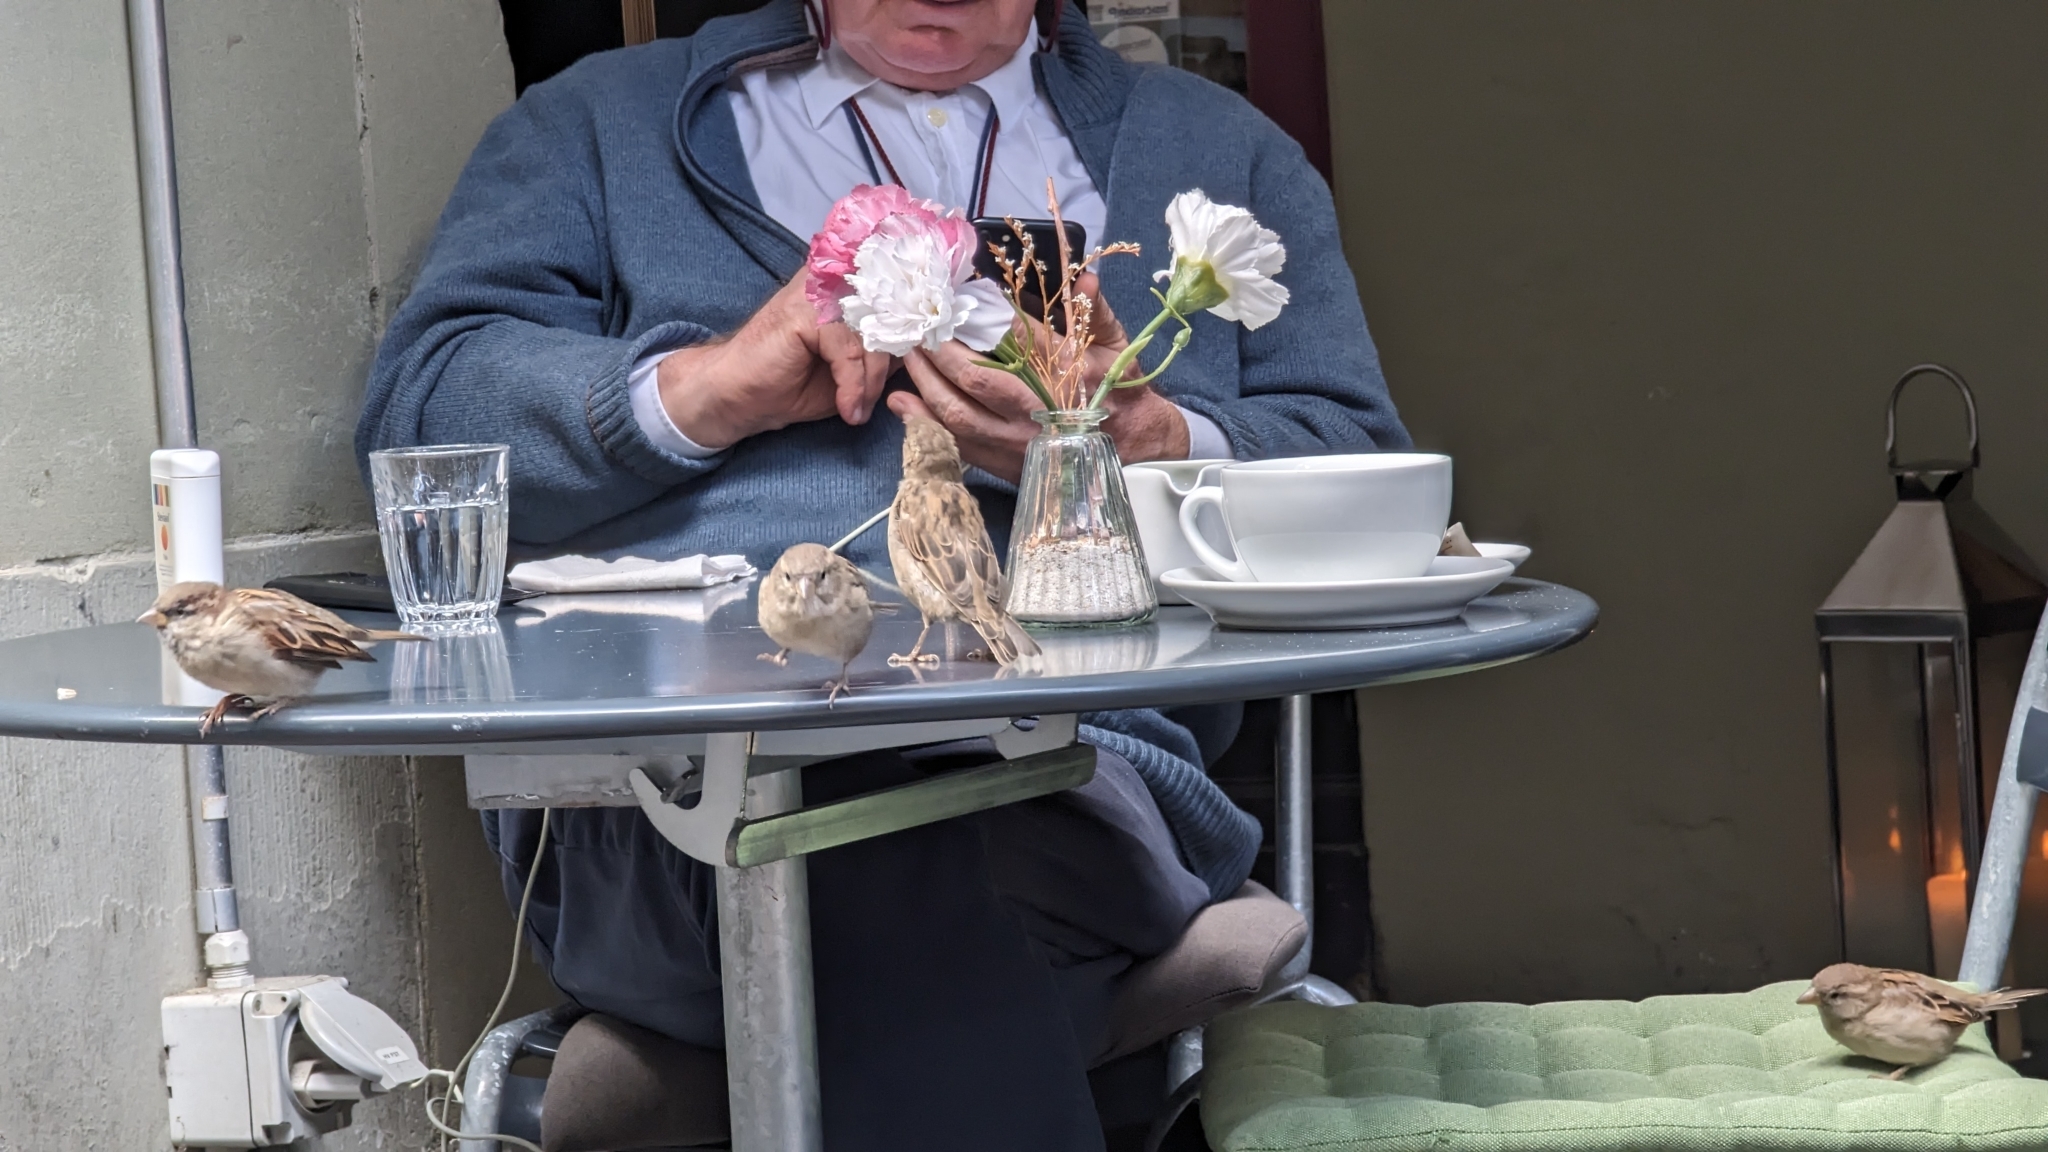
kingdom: Animalia
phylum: Chordata
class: Aves
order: Passeriformes
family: Passeridae
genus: Passer
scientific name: Passer domesticus
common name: House sparrow
